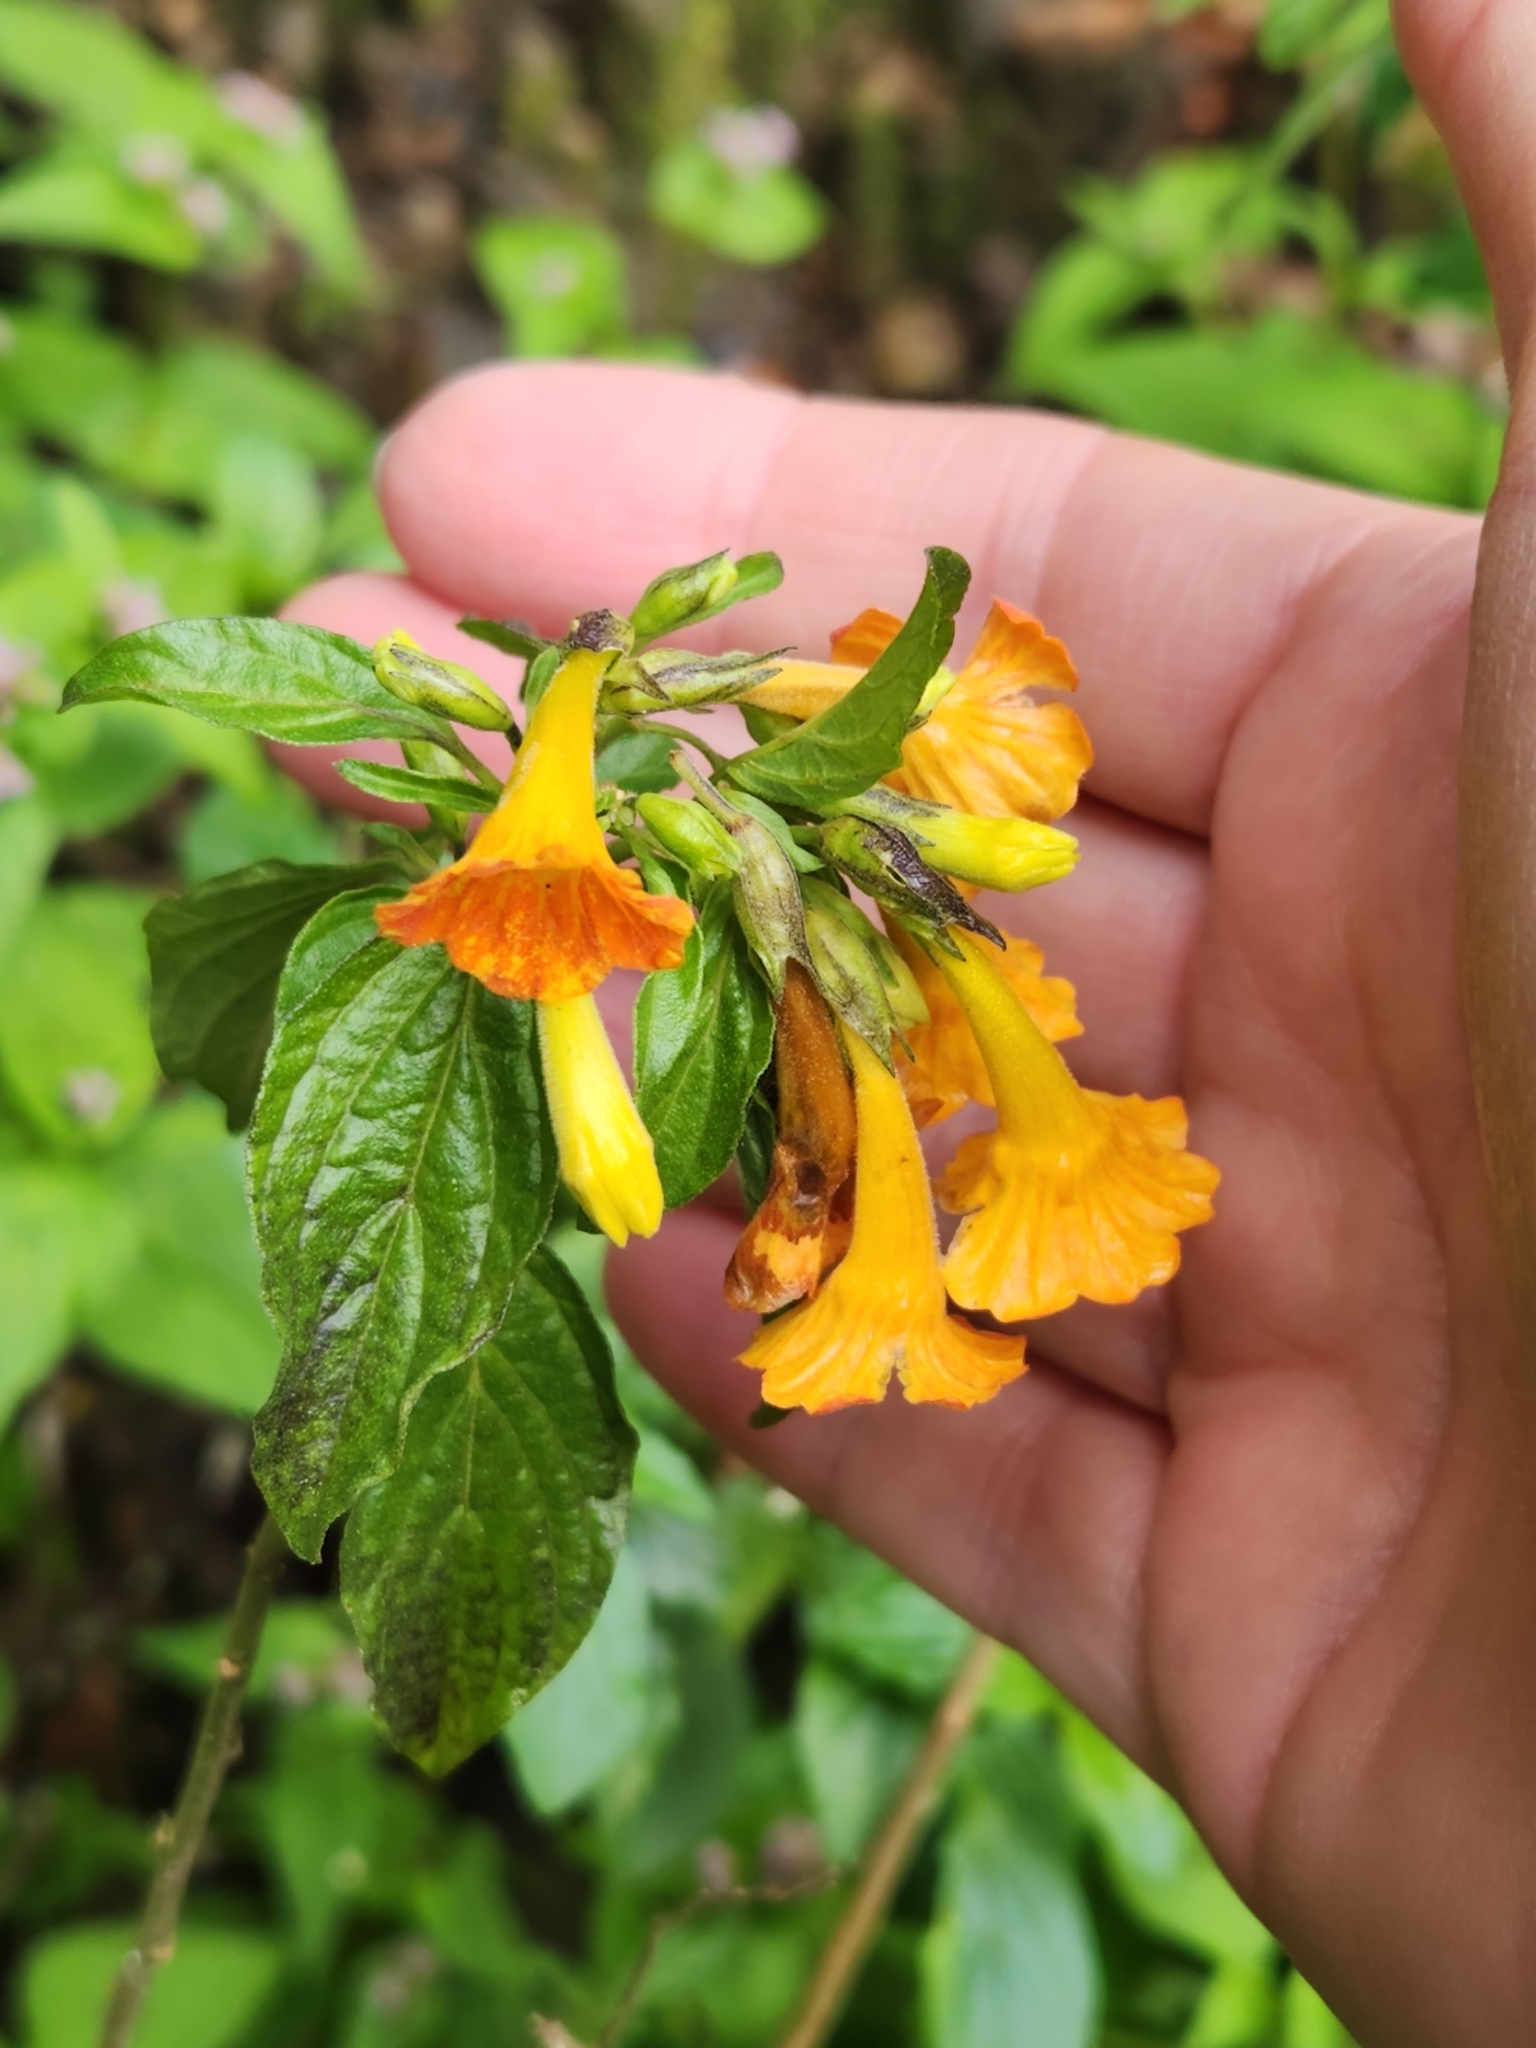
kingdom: Plantae
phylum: Tracheophyta
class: Magnoliopsida
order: Solanales
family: Solanaceae
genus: Streptosolen
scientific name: Streptosolen jamesonii
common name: Marmalade bush
